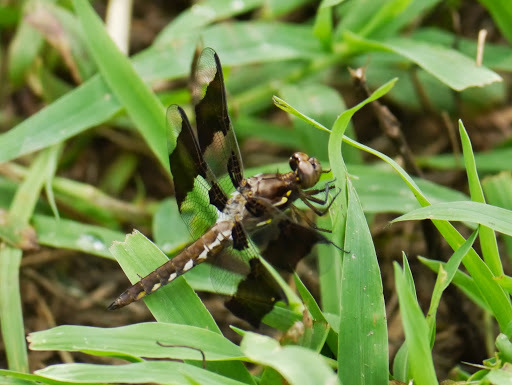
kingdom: Animalia
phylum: Arthropoda
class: Insecta
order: Odonata
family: Libellulidae
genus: Plathemis
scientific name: Plathemis lydia
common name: Common whitetail
